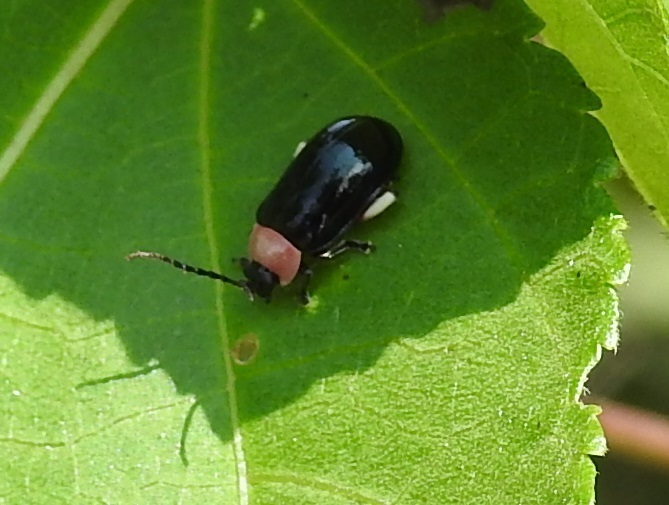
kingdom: Animalia
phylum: Arthropoda
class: Insecta
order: Coleoptera
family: Chrysomelidae
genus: Asphaera
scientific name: Asphaera
